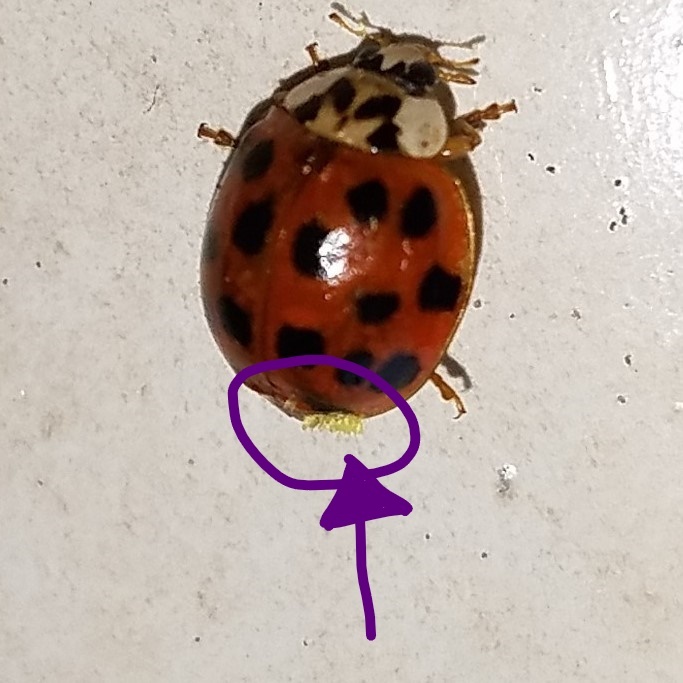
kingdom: Fungi
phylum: Ascomycota
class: Laboulbeniomycetes
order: Laboulbeniales
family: Laboulbeniaceae
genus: Hesperomyces
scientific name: Hesperomyces harmoniae
